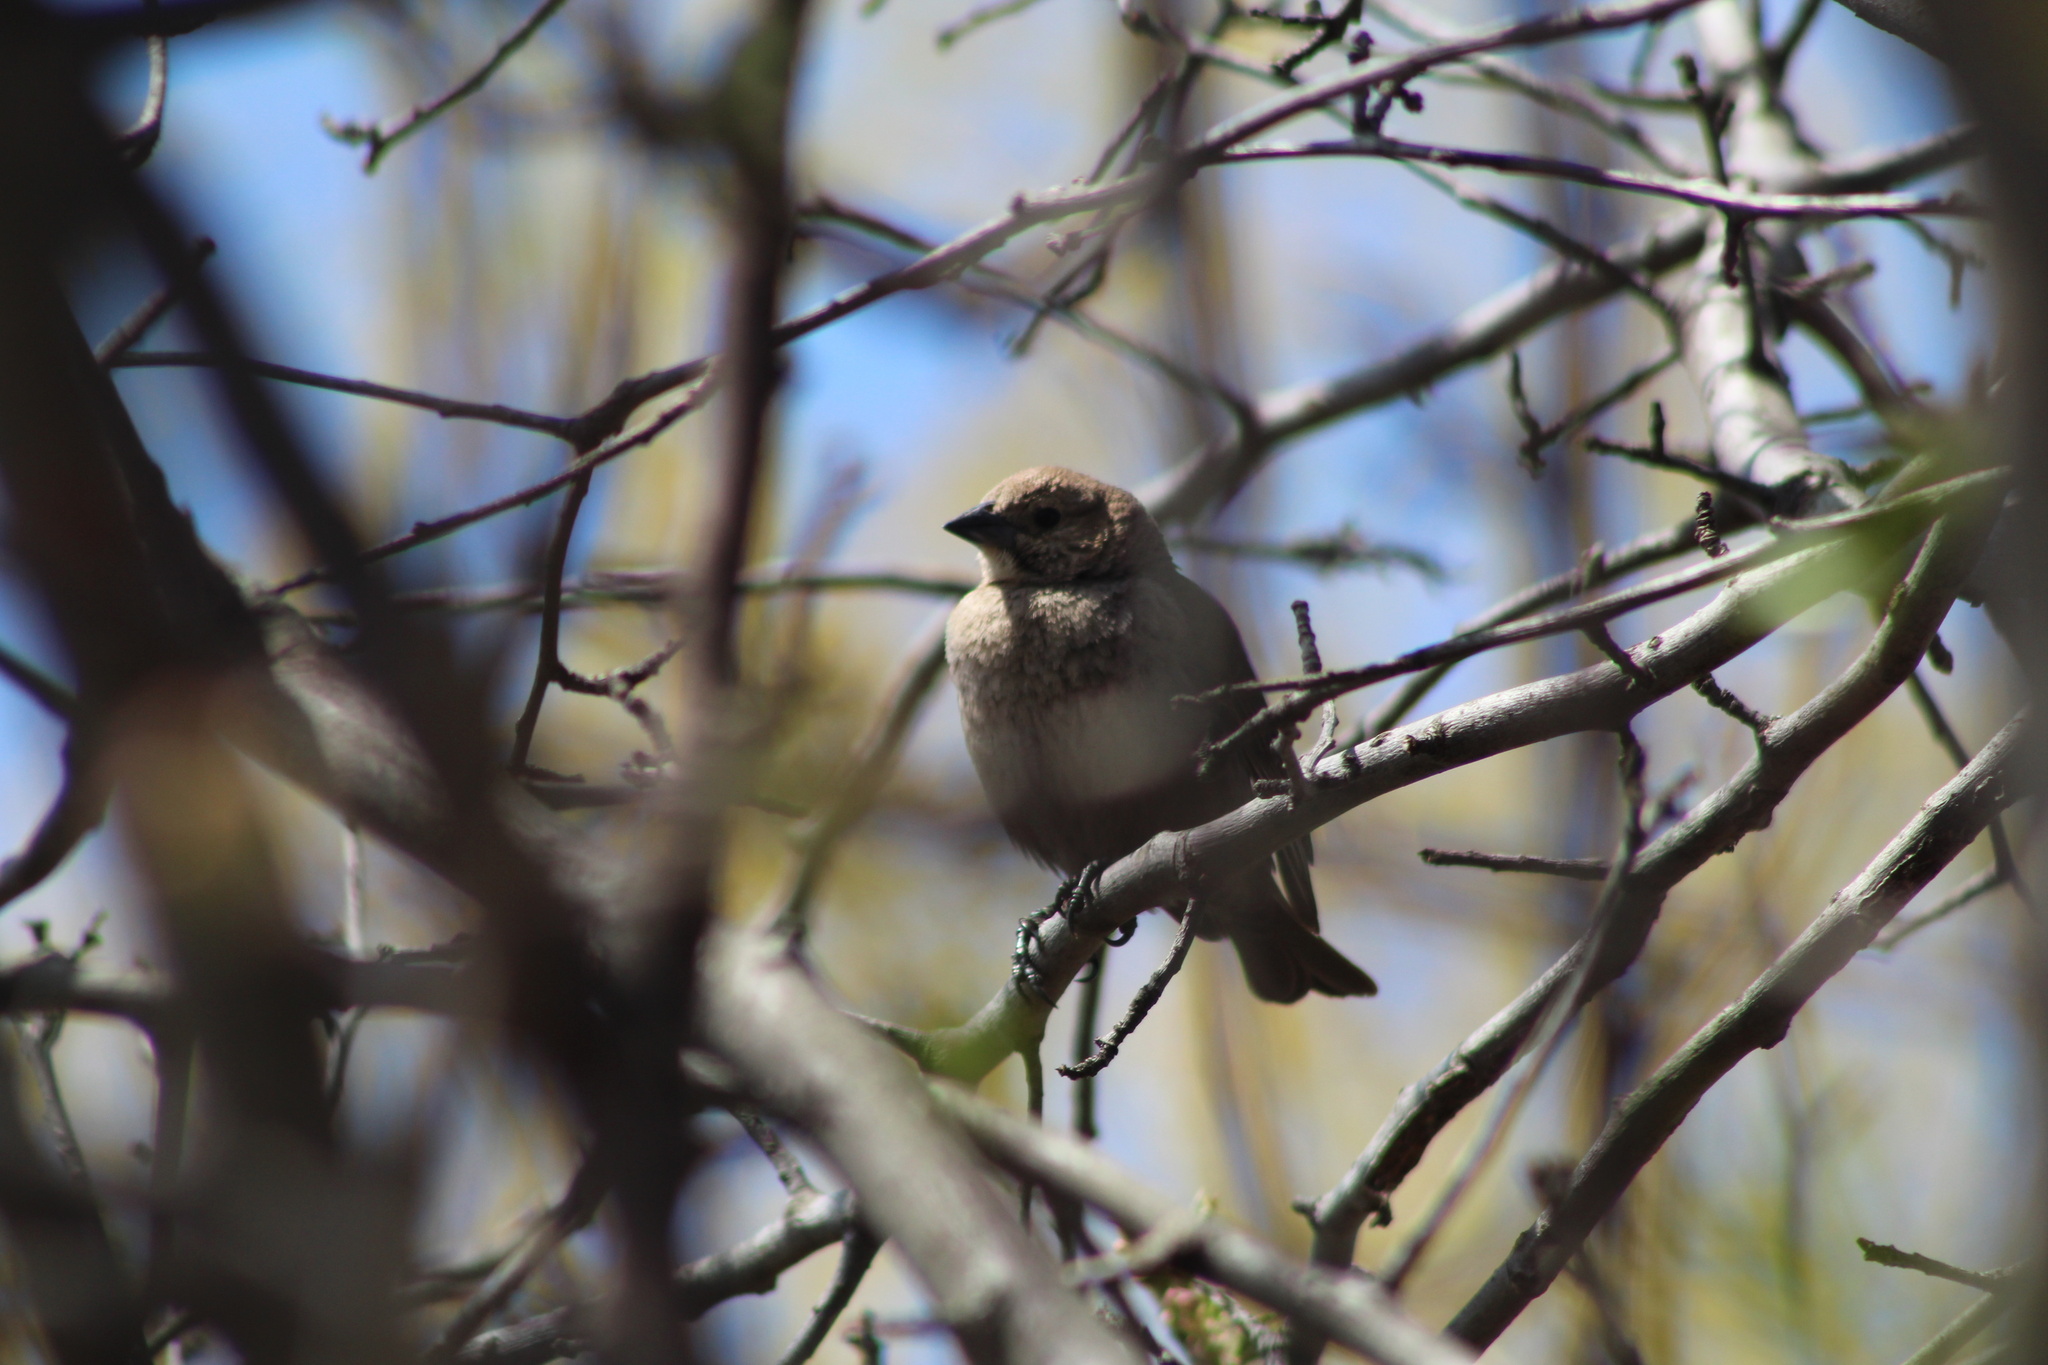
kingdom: Animalia
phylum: Chordata
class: Aves
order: Passeriformes
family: Icteridae
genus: Molothrus
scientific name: Molothrus ater
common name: Brown-headed cowbird
